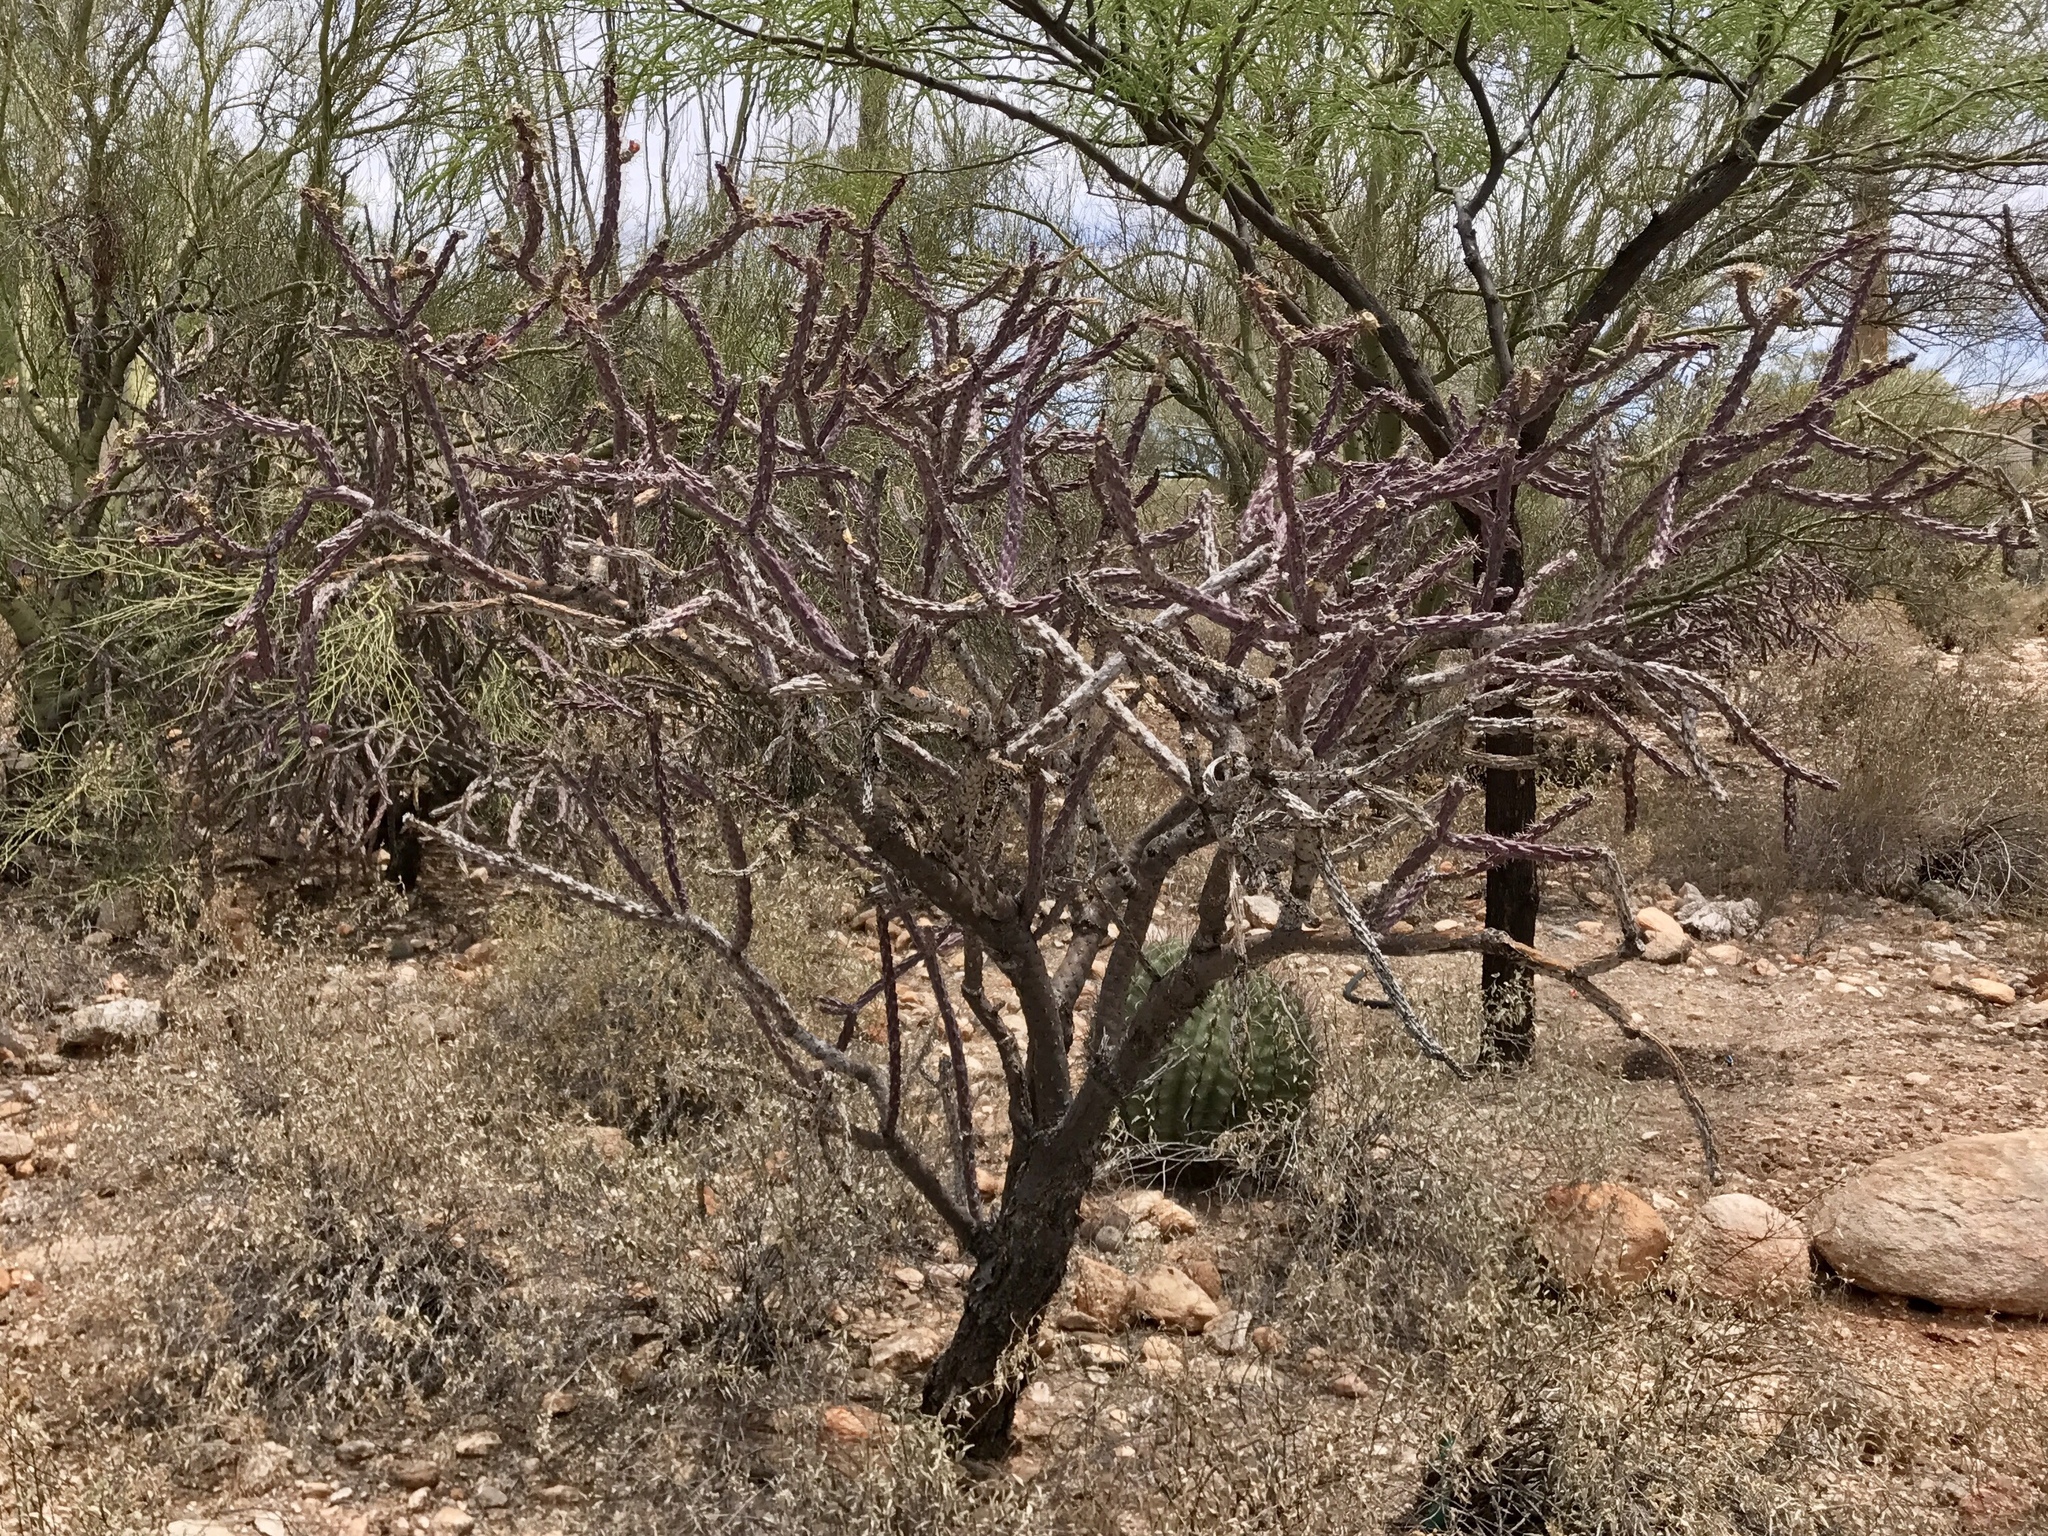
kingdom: Plantae
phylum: Tracheophyta
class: Magnoliopsida
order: Caryophyllales
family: Cactaceae
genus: Cylindropuntia
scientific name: Cylindropuntia thurberi
